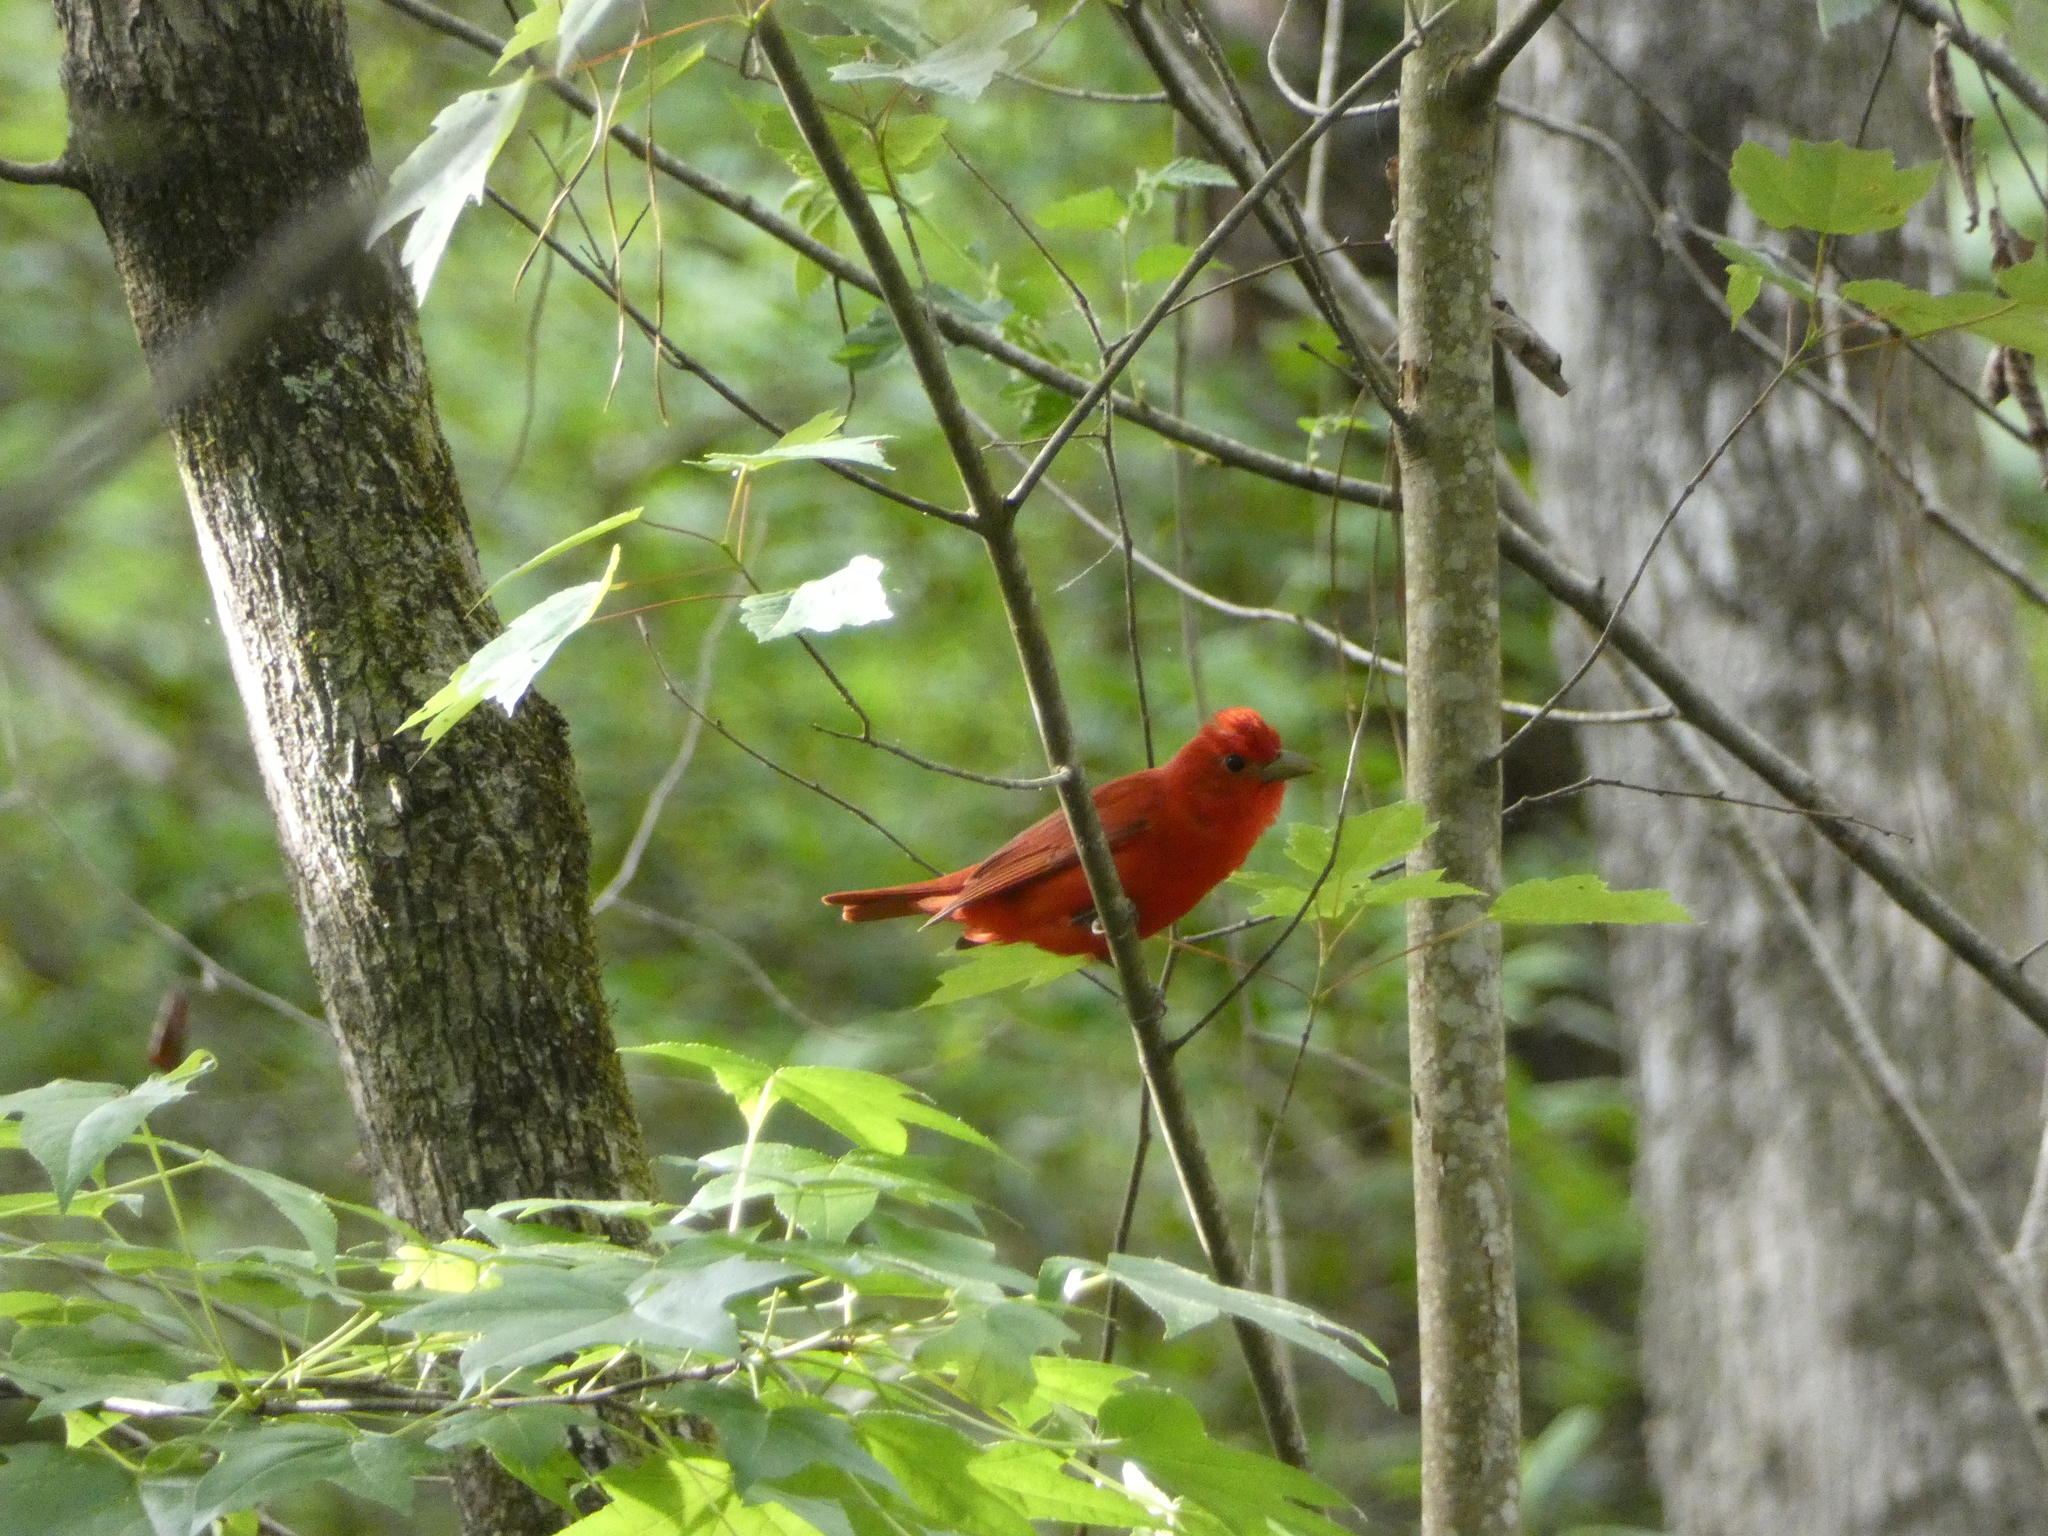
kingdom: Animalia
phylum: Chordata
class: Aves
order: Passeriformes
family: Cardinalidae
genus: Piranga
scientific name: Piranga rubra
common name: Summer tanager
